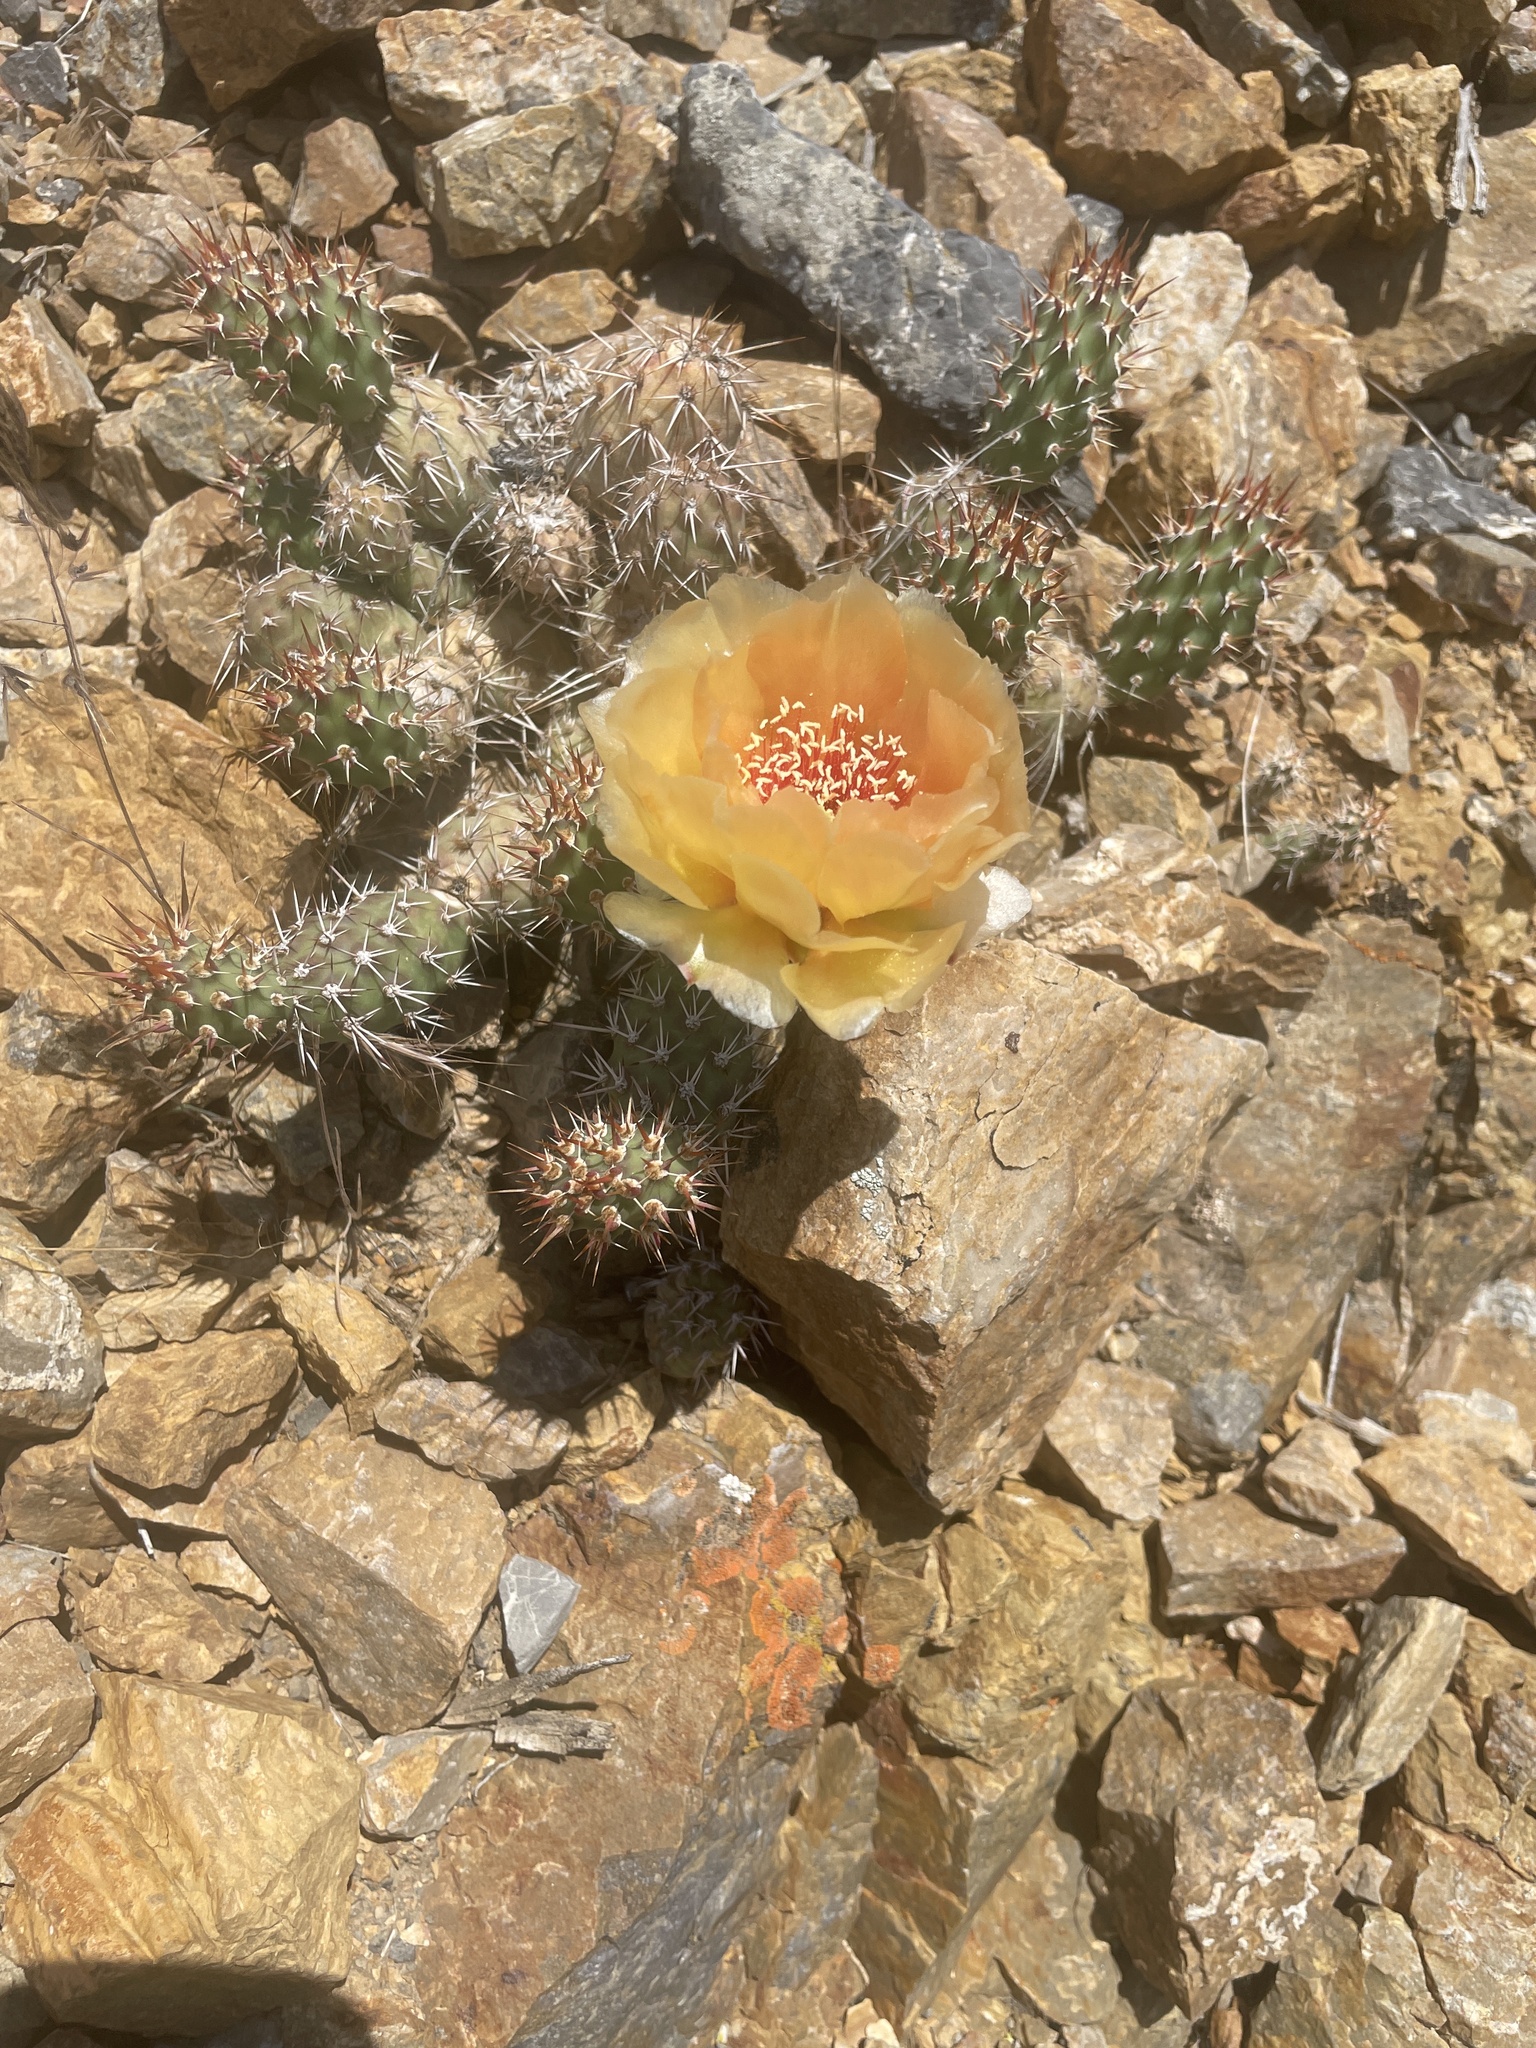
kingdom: Plantae
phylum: Tracheophyta
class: Magnoliopsida
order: Caryophyllales
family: Cactaceae
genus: Opuntia
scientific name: Opuntia fragilis
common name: Brittle cactus
